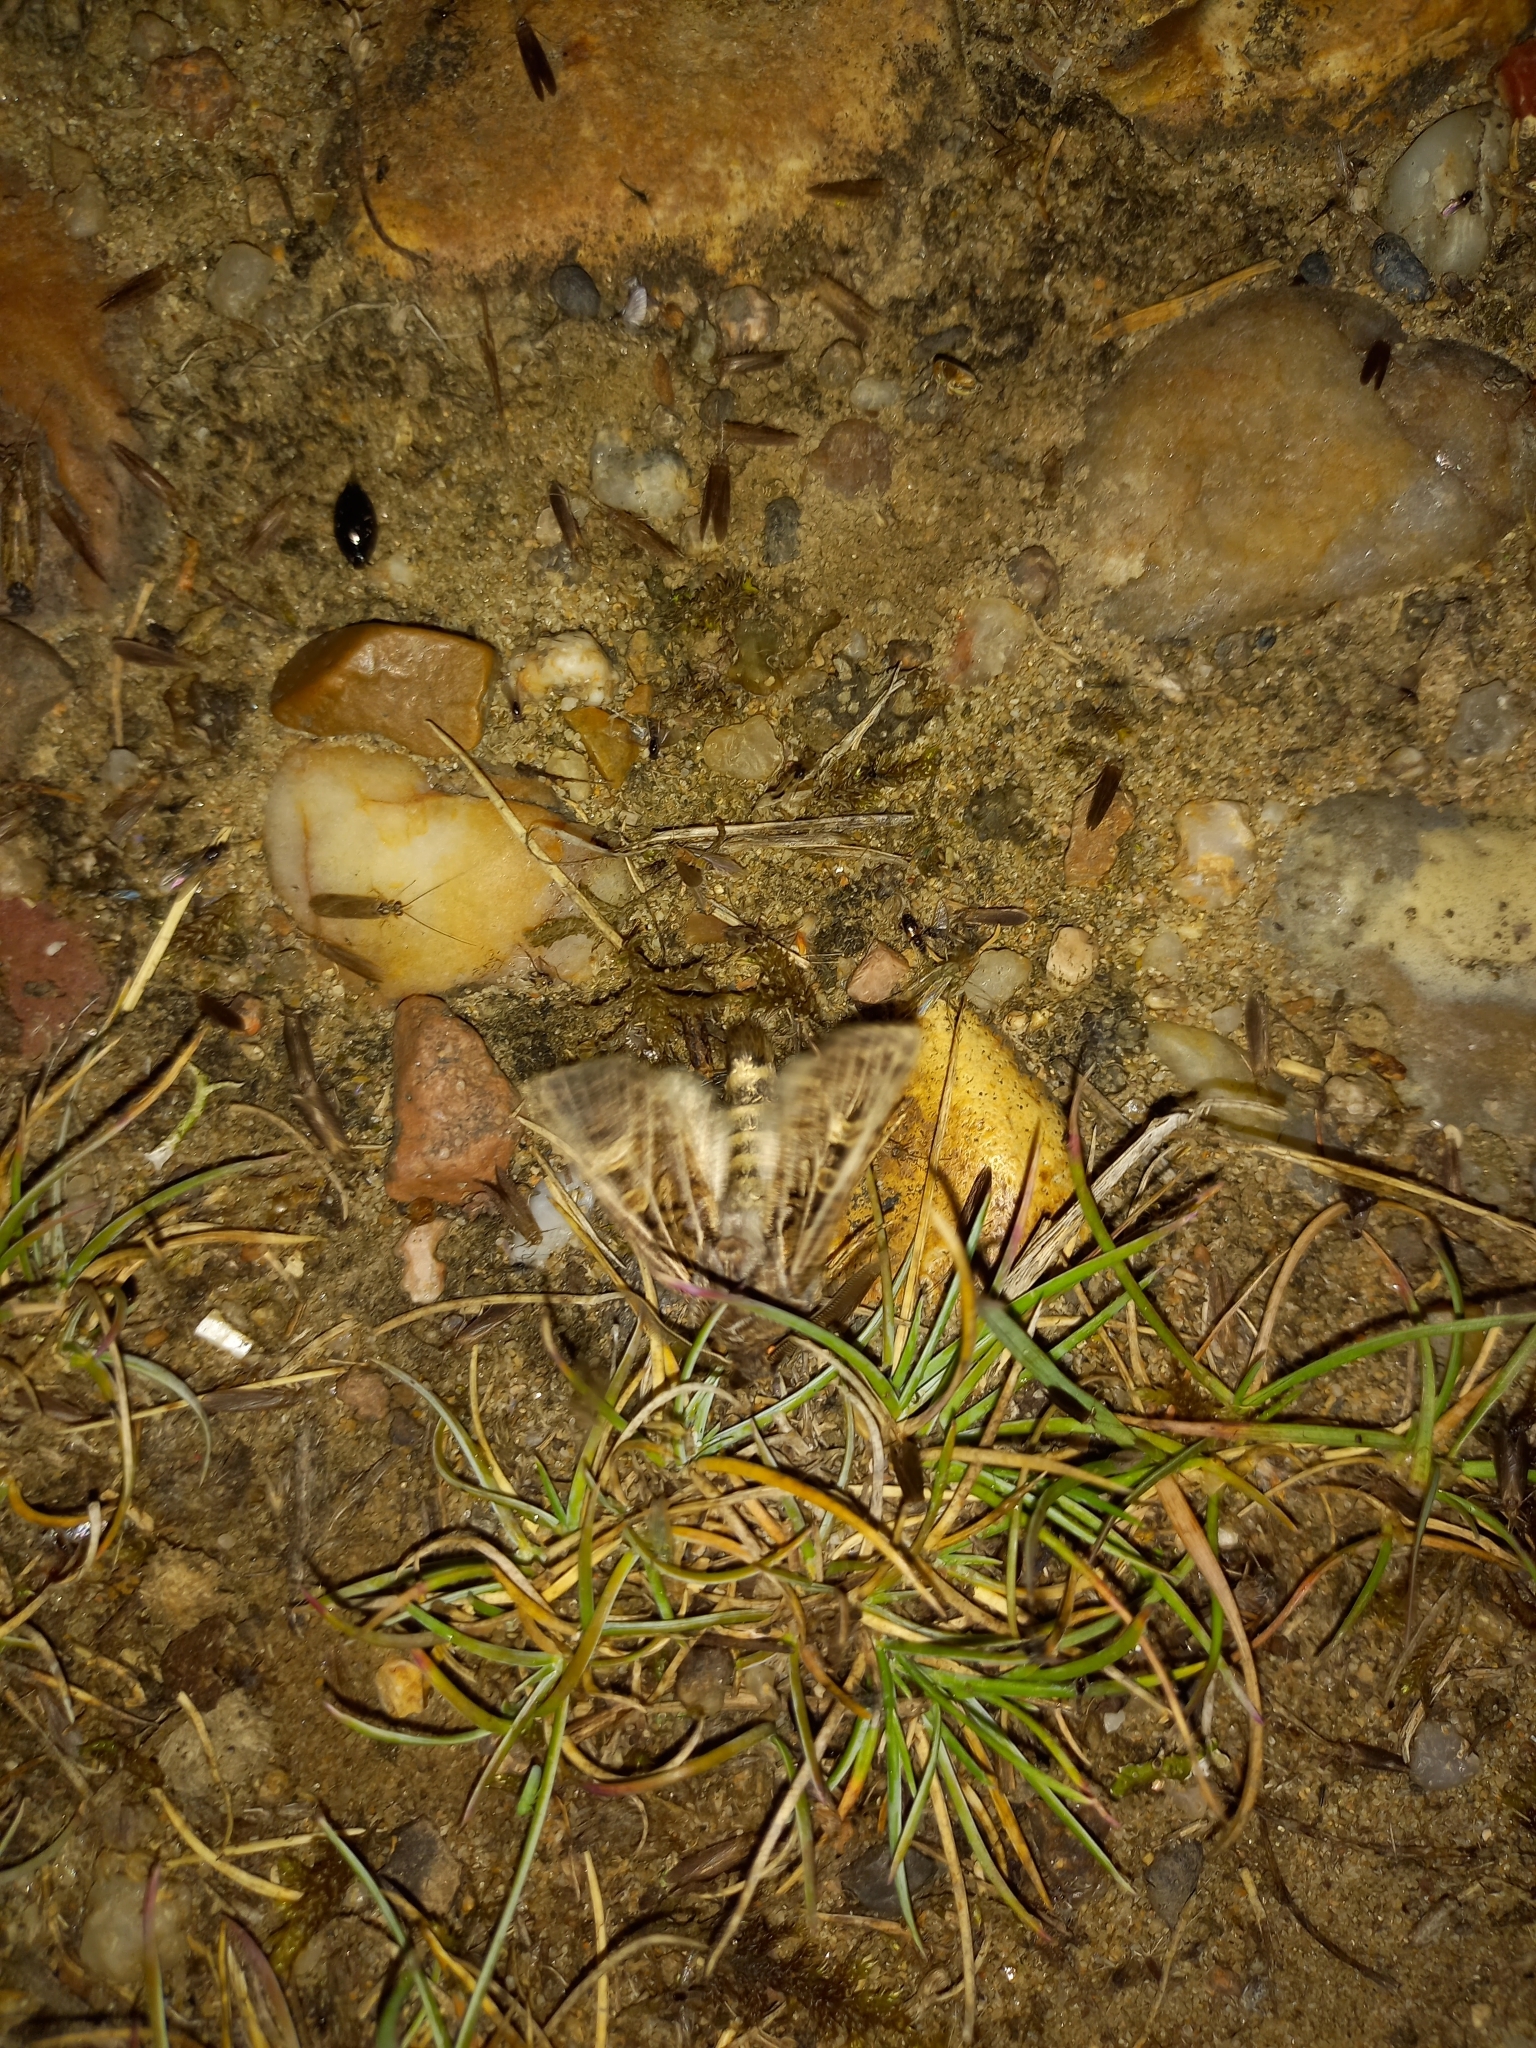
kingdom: Animalia
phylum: Arthropoda
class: Insecta
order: Lepidoptera
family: Noctuidae
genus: Tholera
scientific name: Tholera decimalis
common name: Feathered gothic
